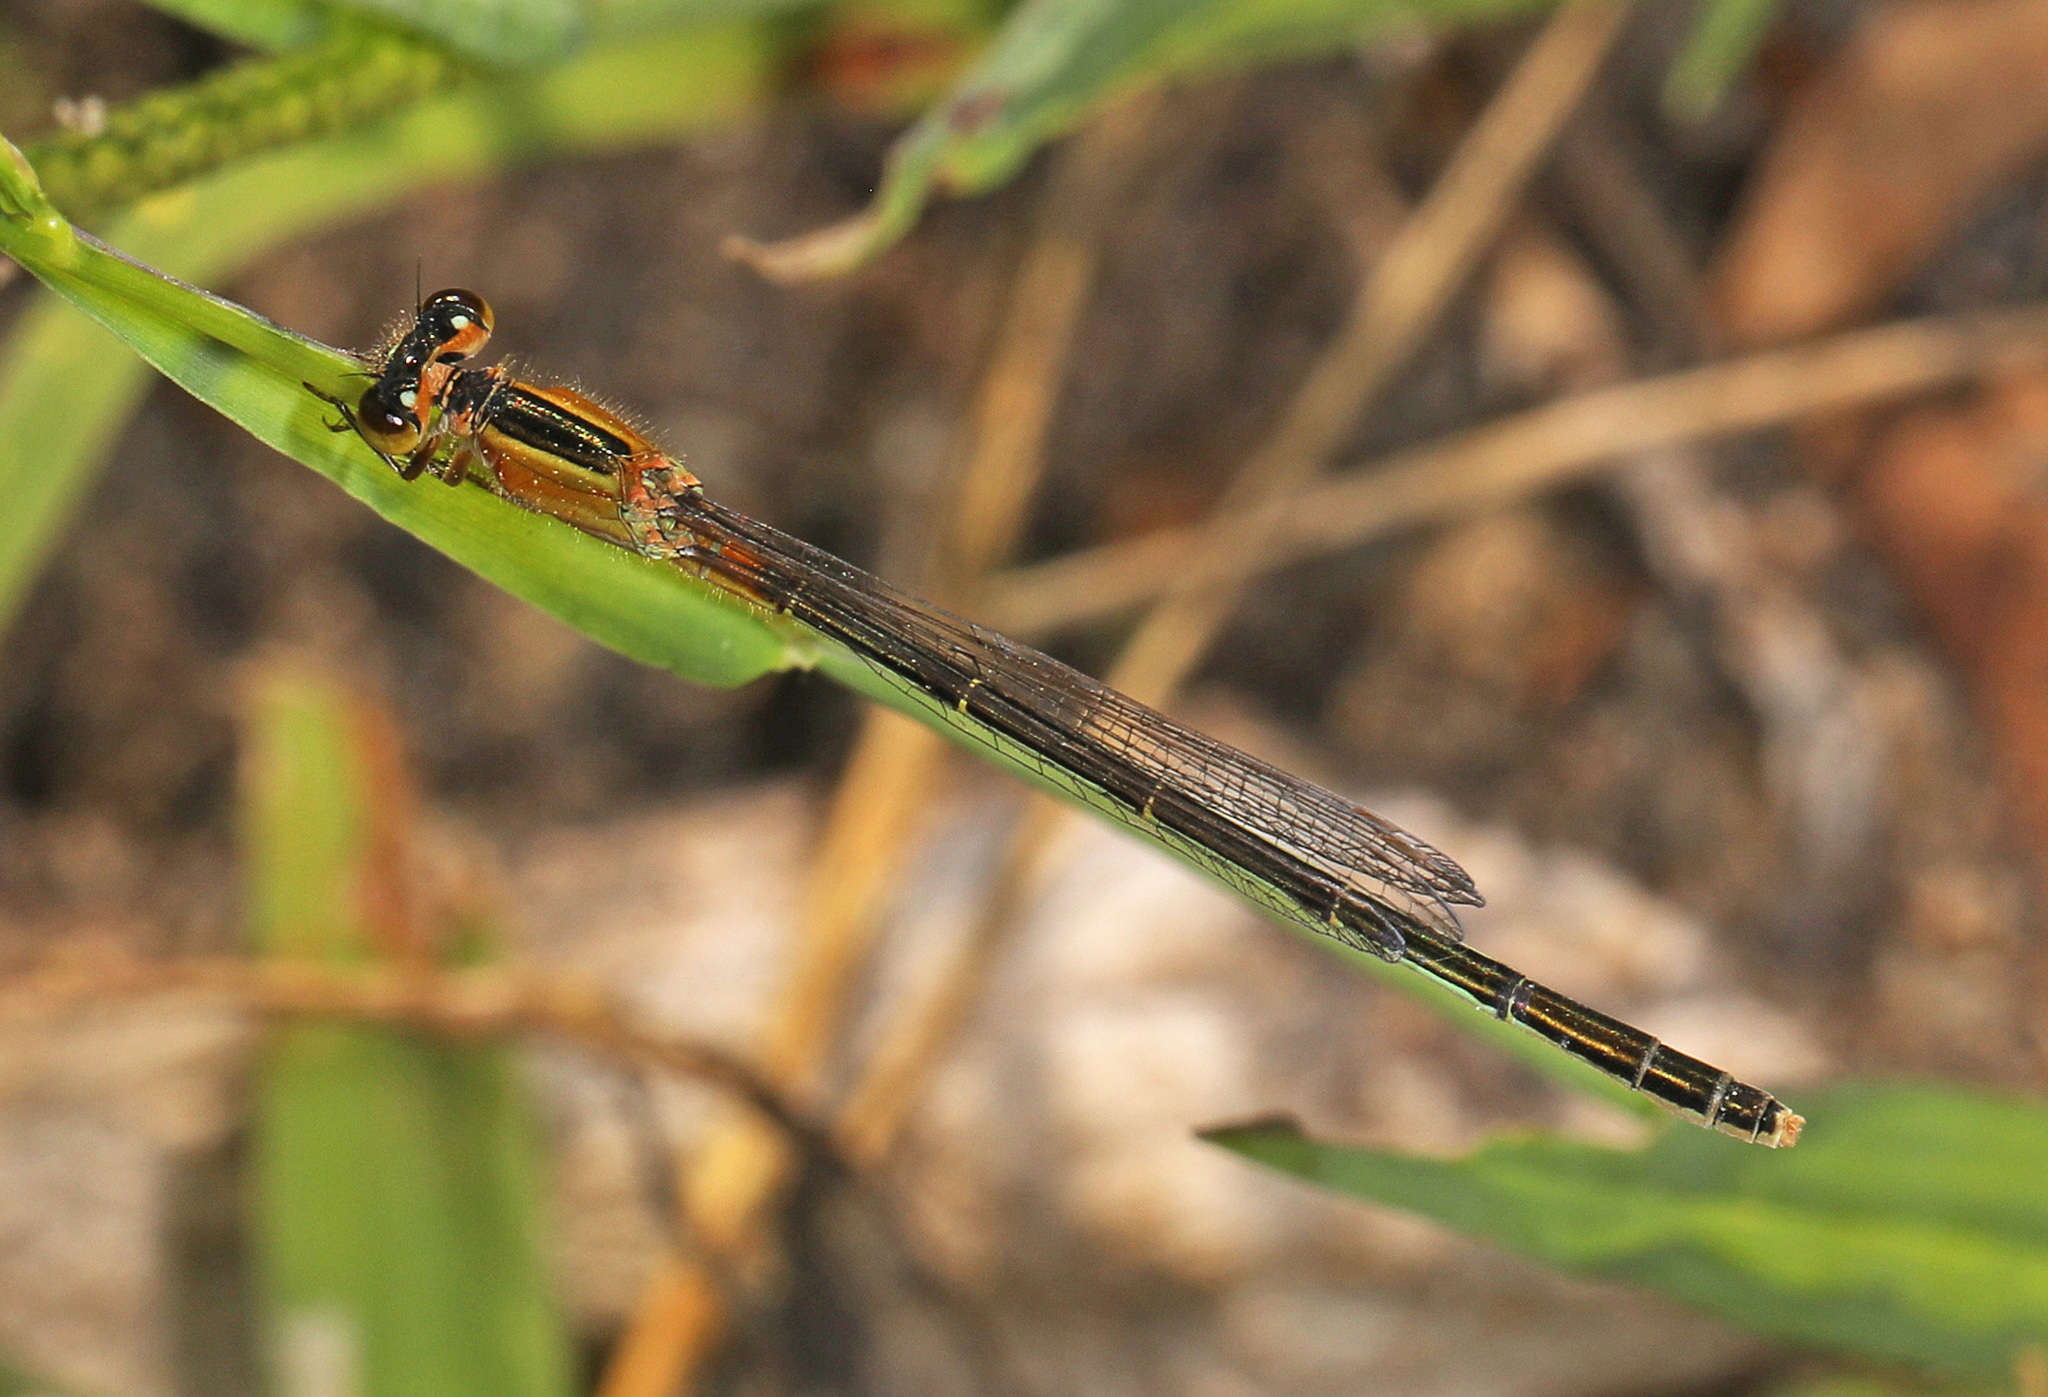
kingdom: Animalia
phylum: Arthropoda
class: Insecta
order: Odonata
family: Coenagrionidae
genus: Ischnura
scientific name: Ischnura ramburii
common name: Rambur's forktail
